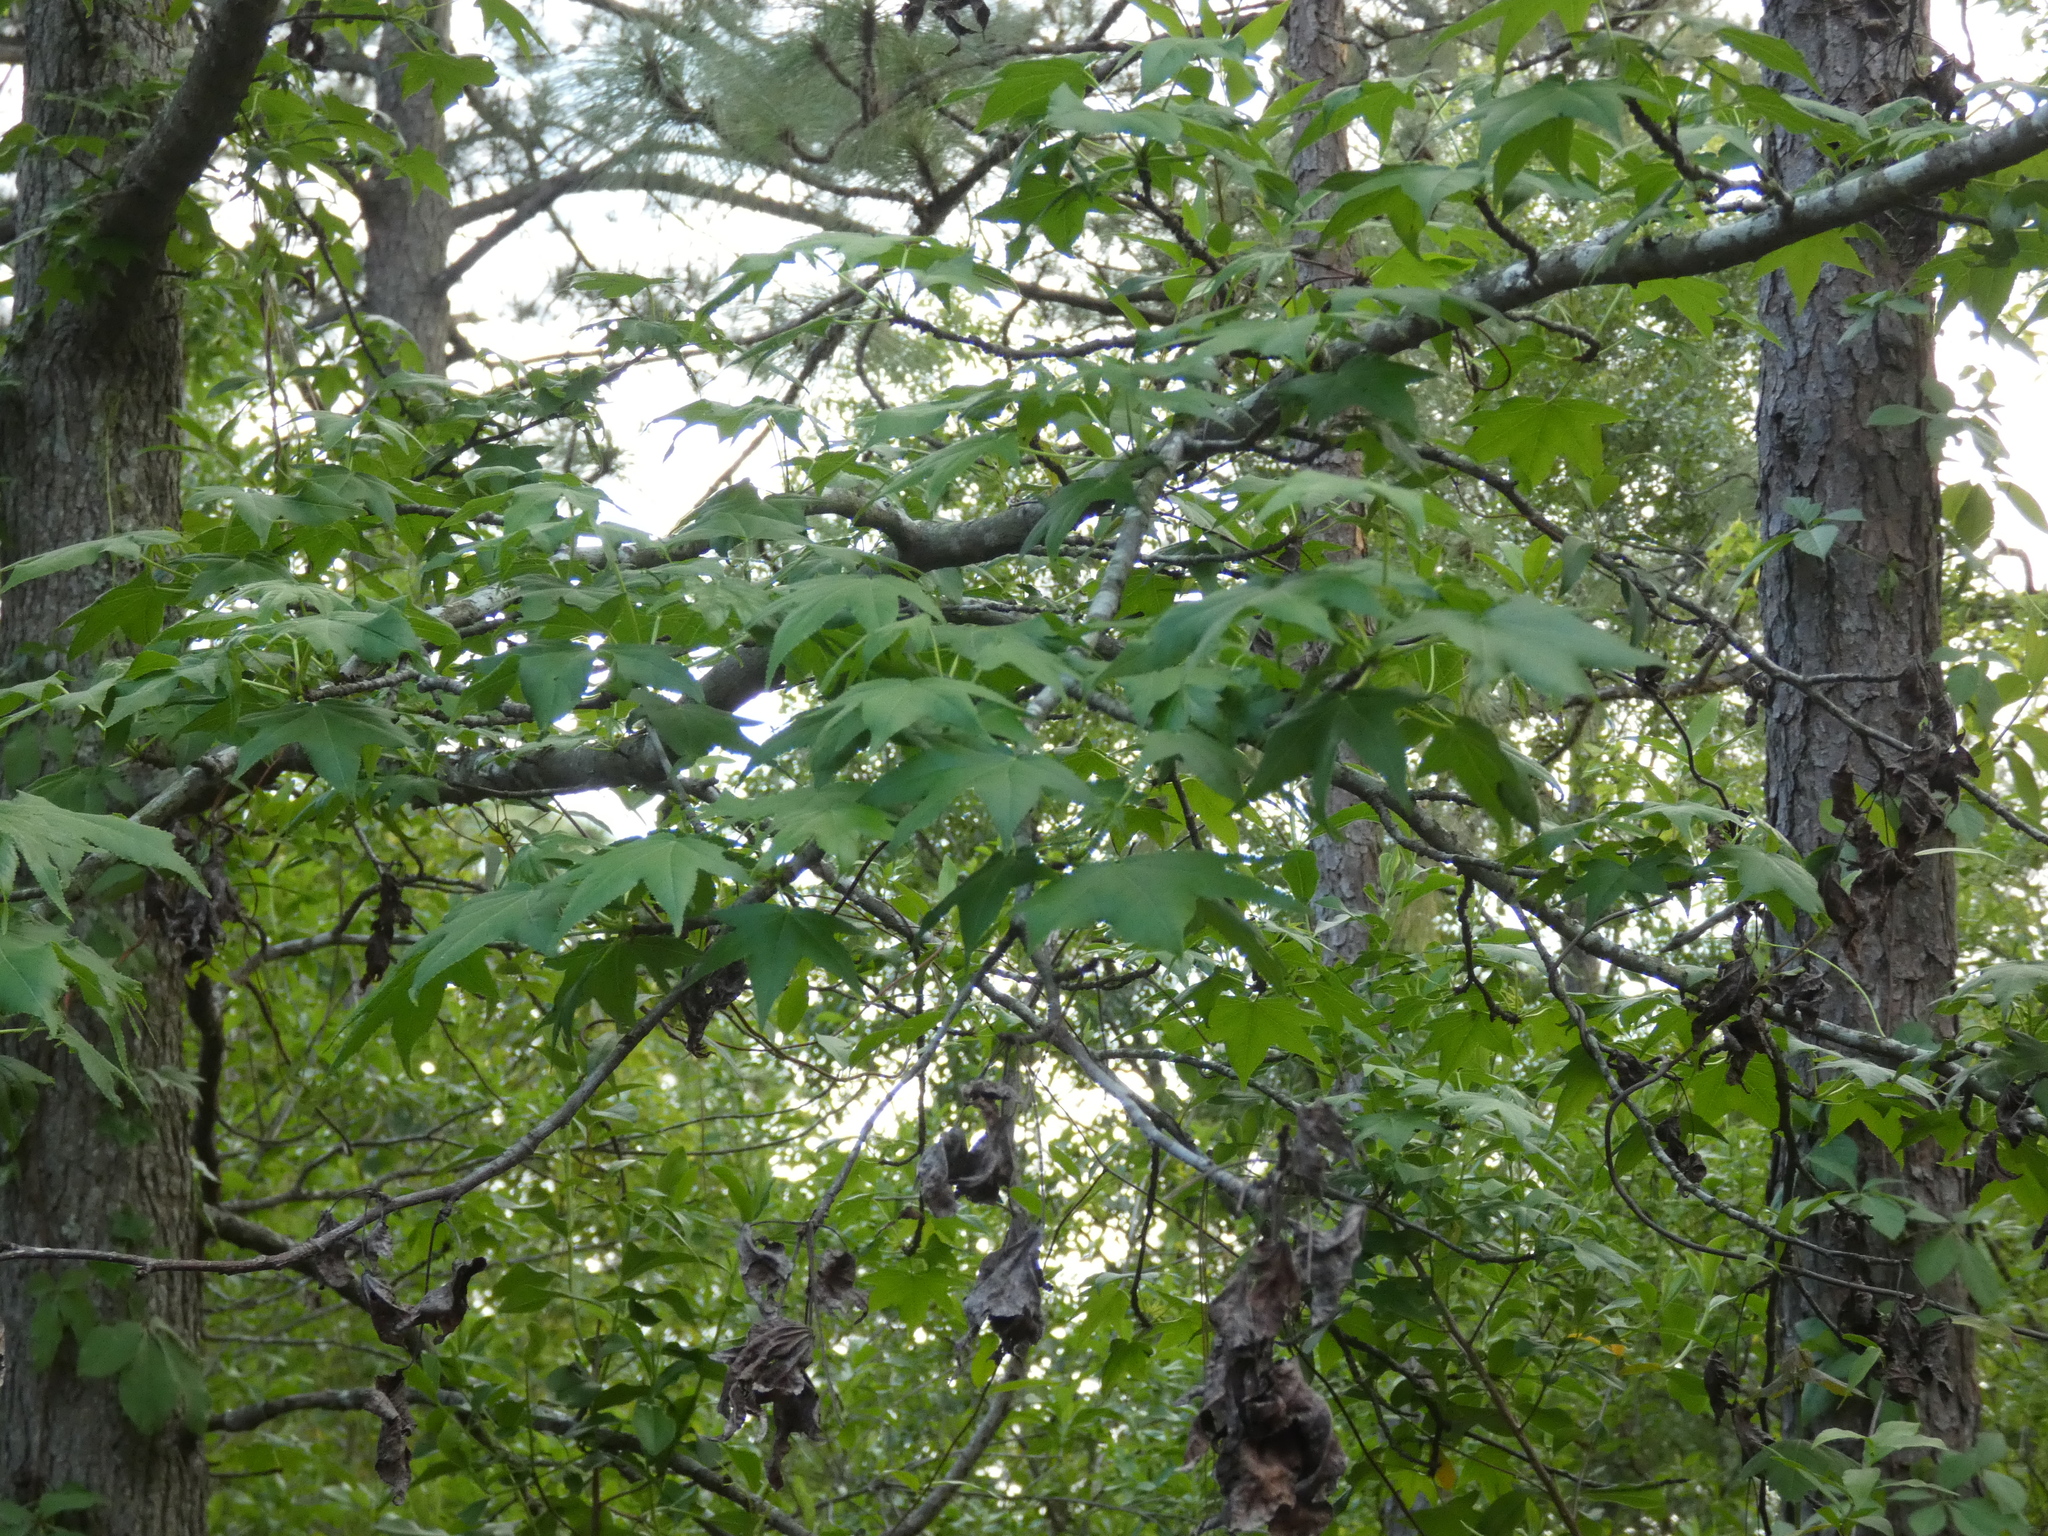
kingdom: Plantae
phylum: Tracheophyta
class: Magnoliopsida
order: Saxifragales
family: Altingiaceae
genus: Liquidambar
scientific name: Liquidambar styraciflua
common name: Sweet gum
